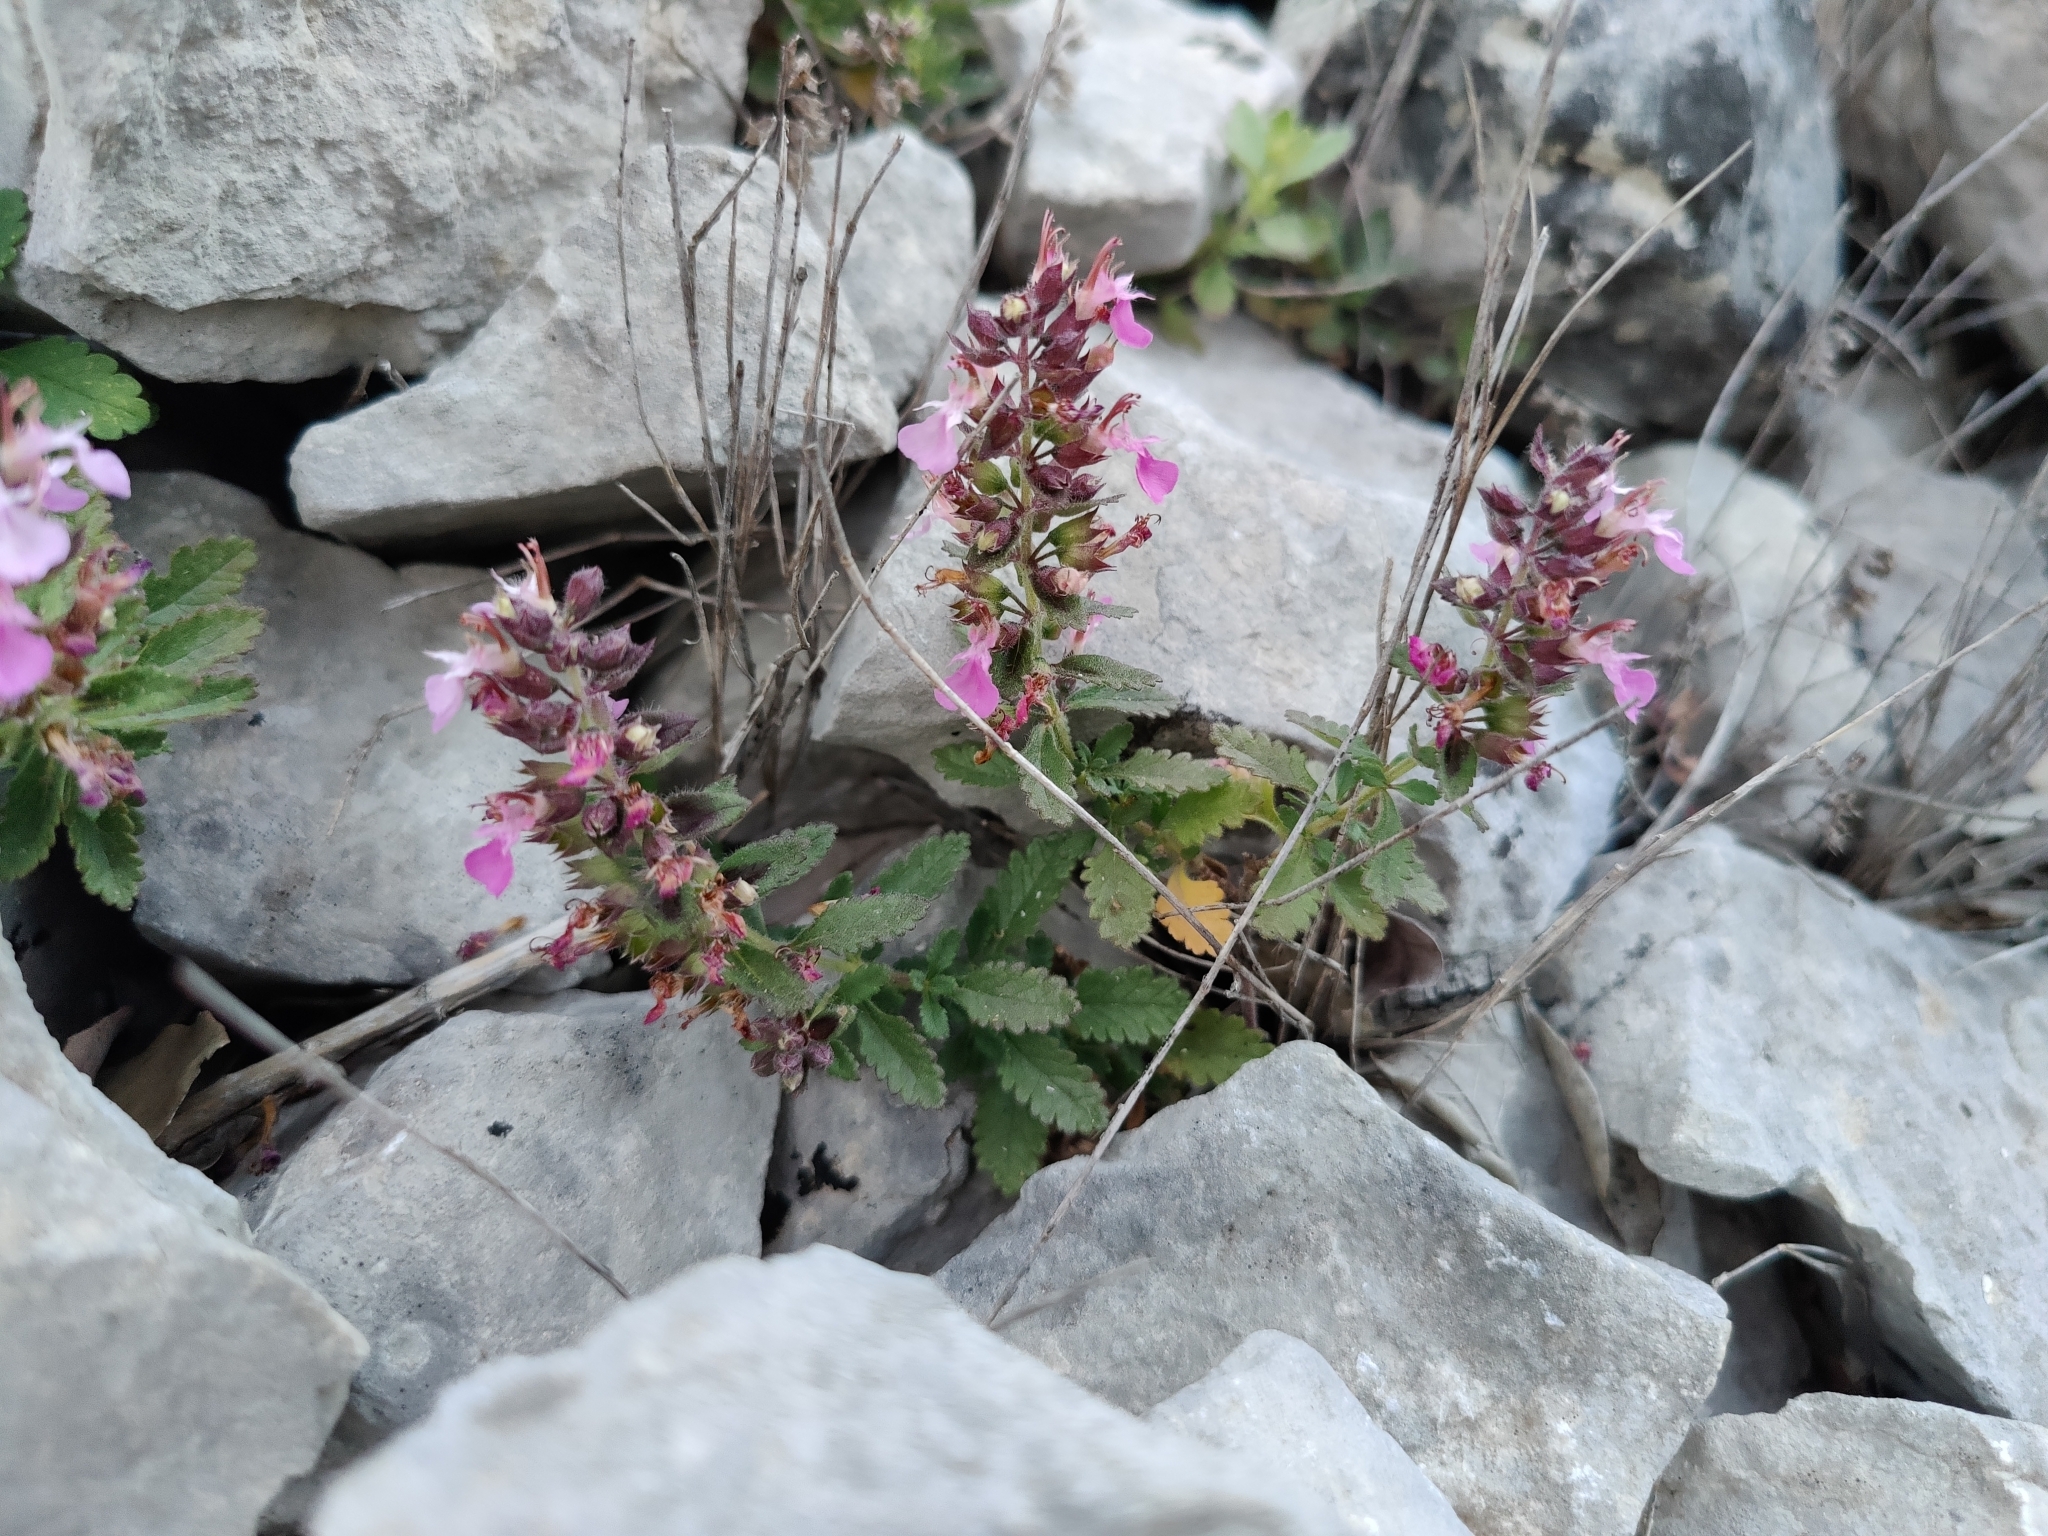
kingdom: Plantae
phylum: Tracheophyta
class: Magnoliopsida
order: Lamiales
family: Lamiaceae
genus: Teucrium
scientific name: Teucrium chamaedrys
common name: Wall germander
